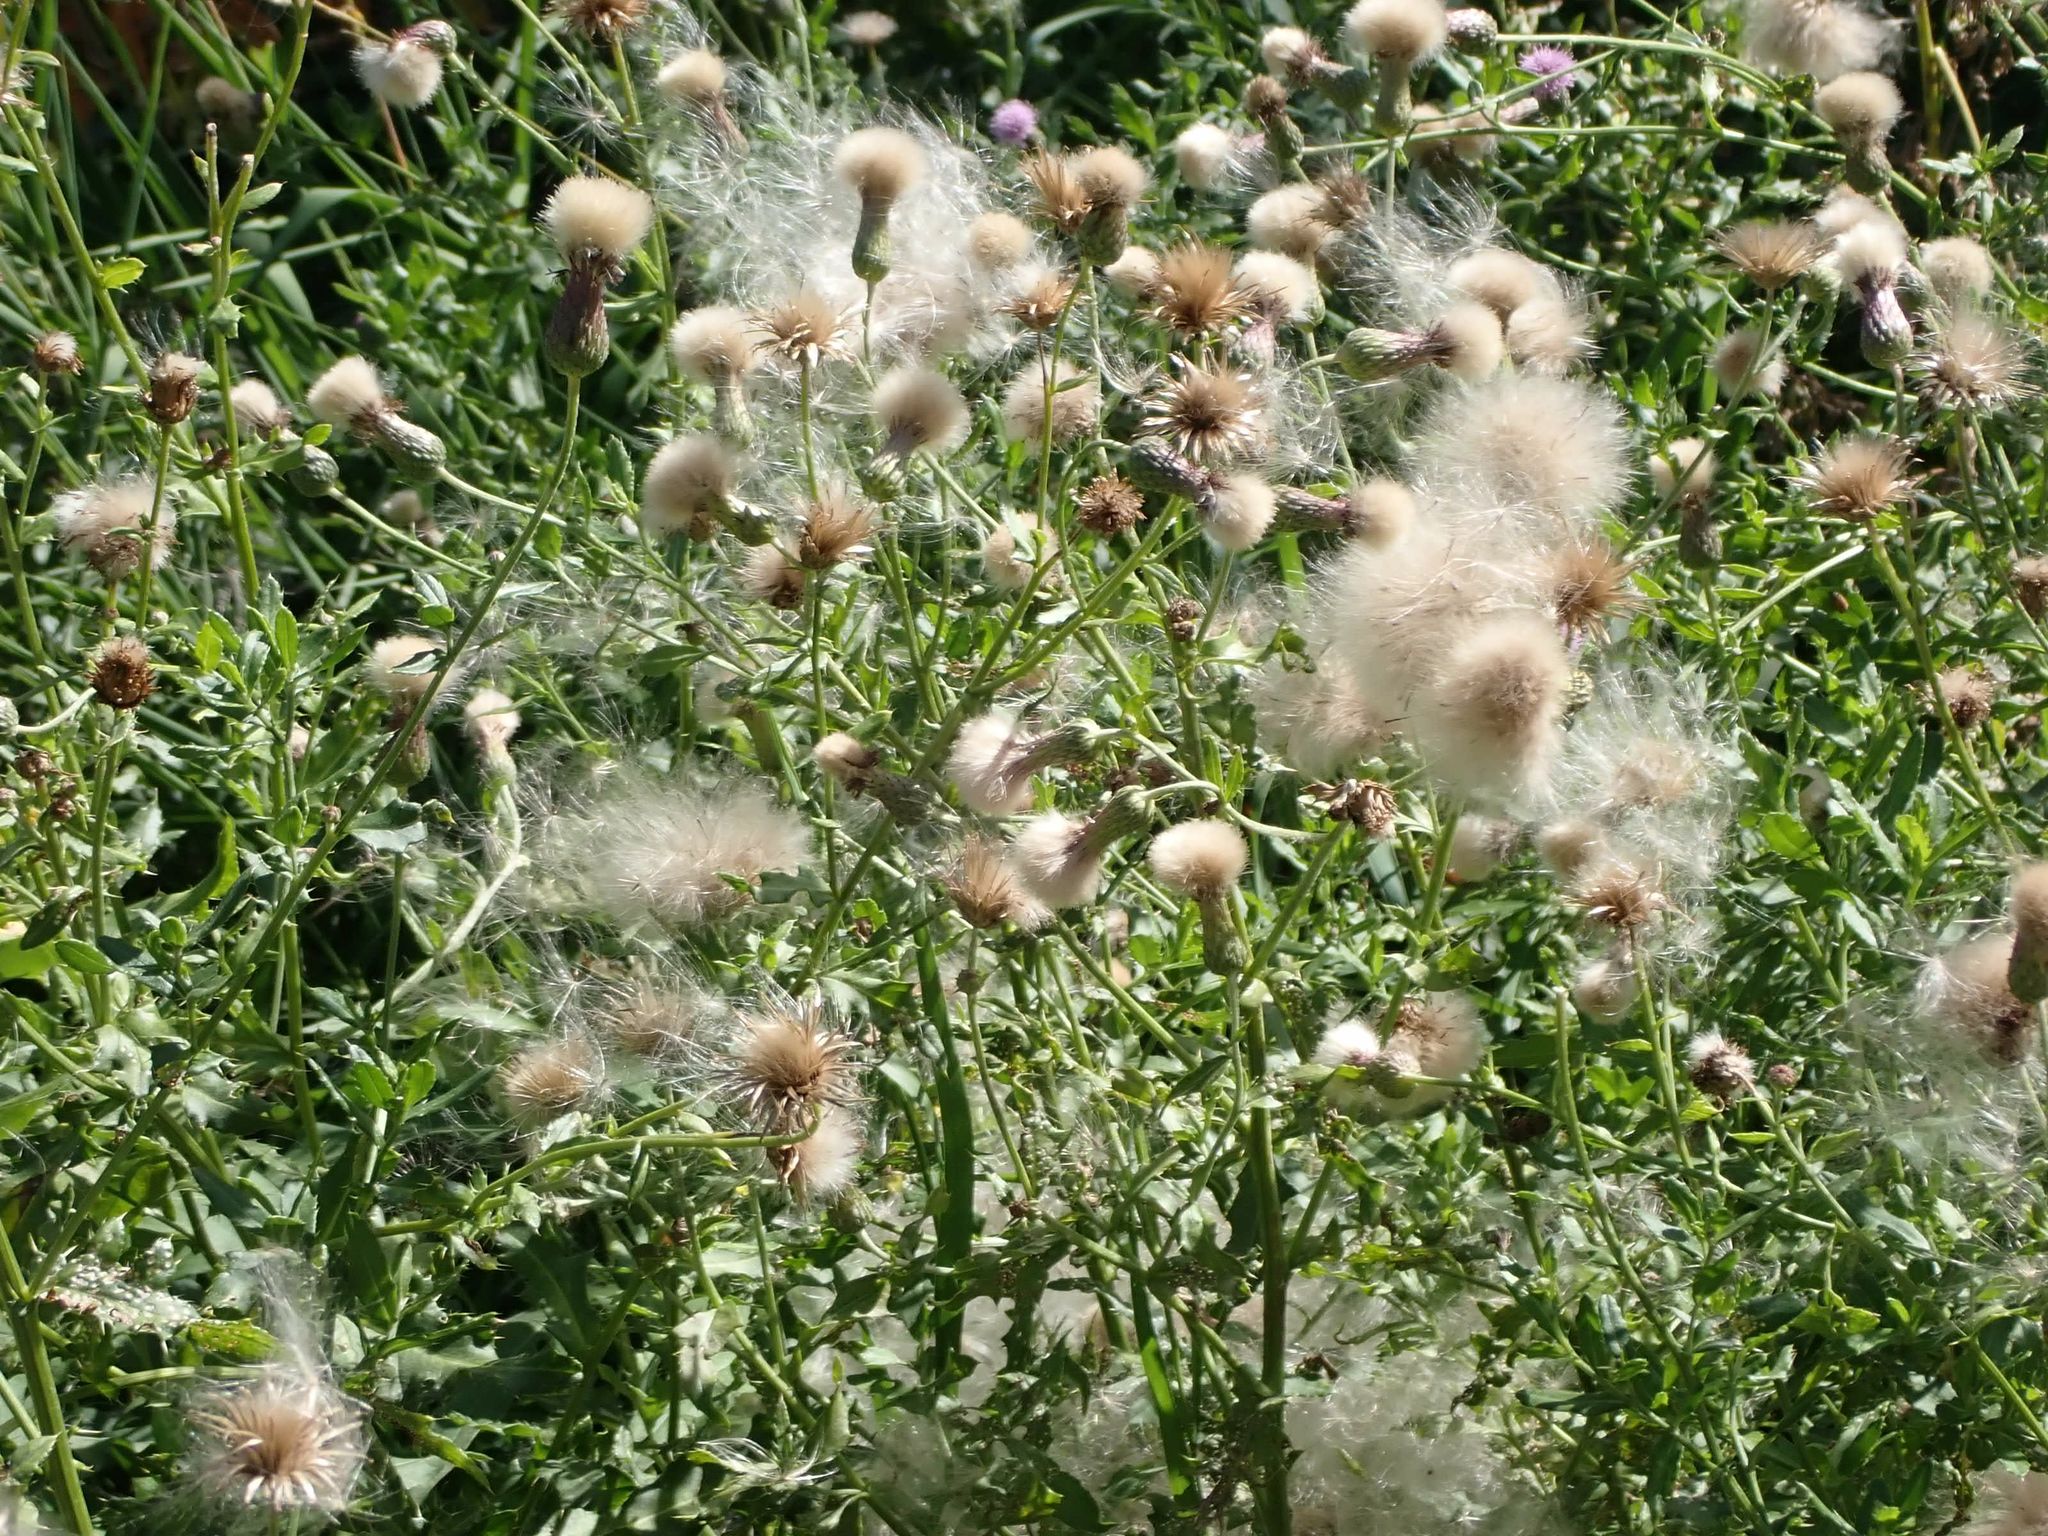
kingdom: Plantae
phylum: Tracheophyta
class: Magnoliopsida
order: Asterales
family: Asteraceae
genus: Cirsium
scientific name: Cirsium arvense
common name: Creeping thistle
